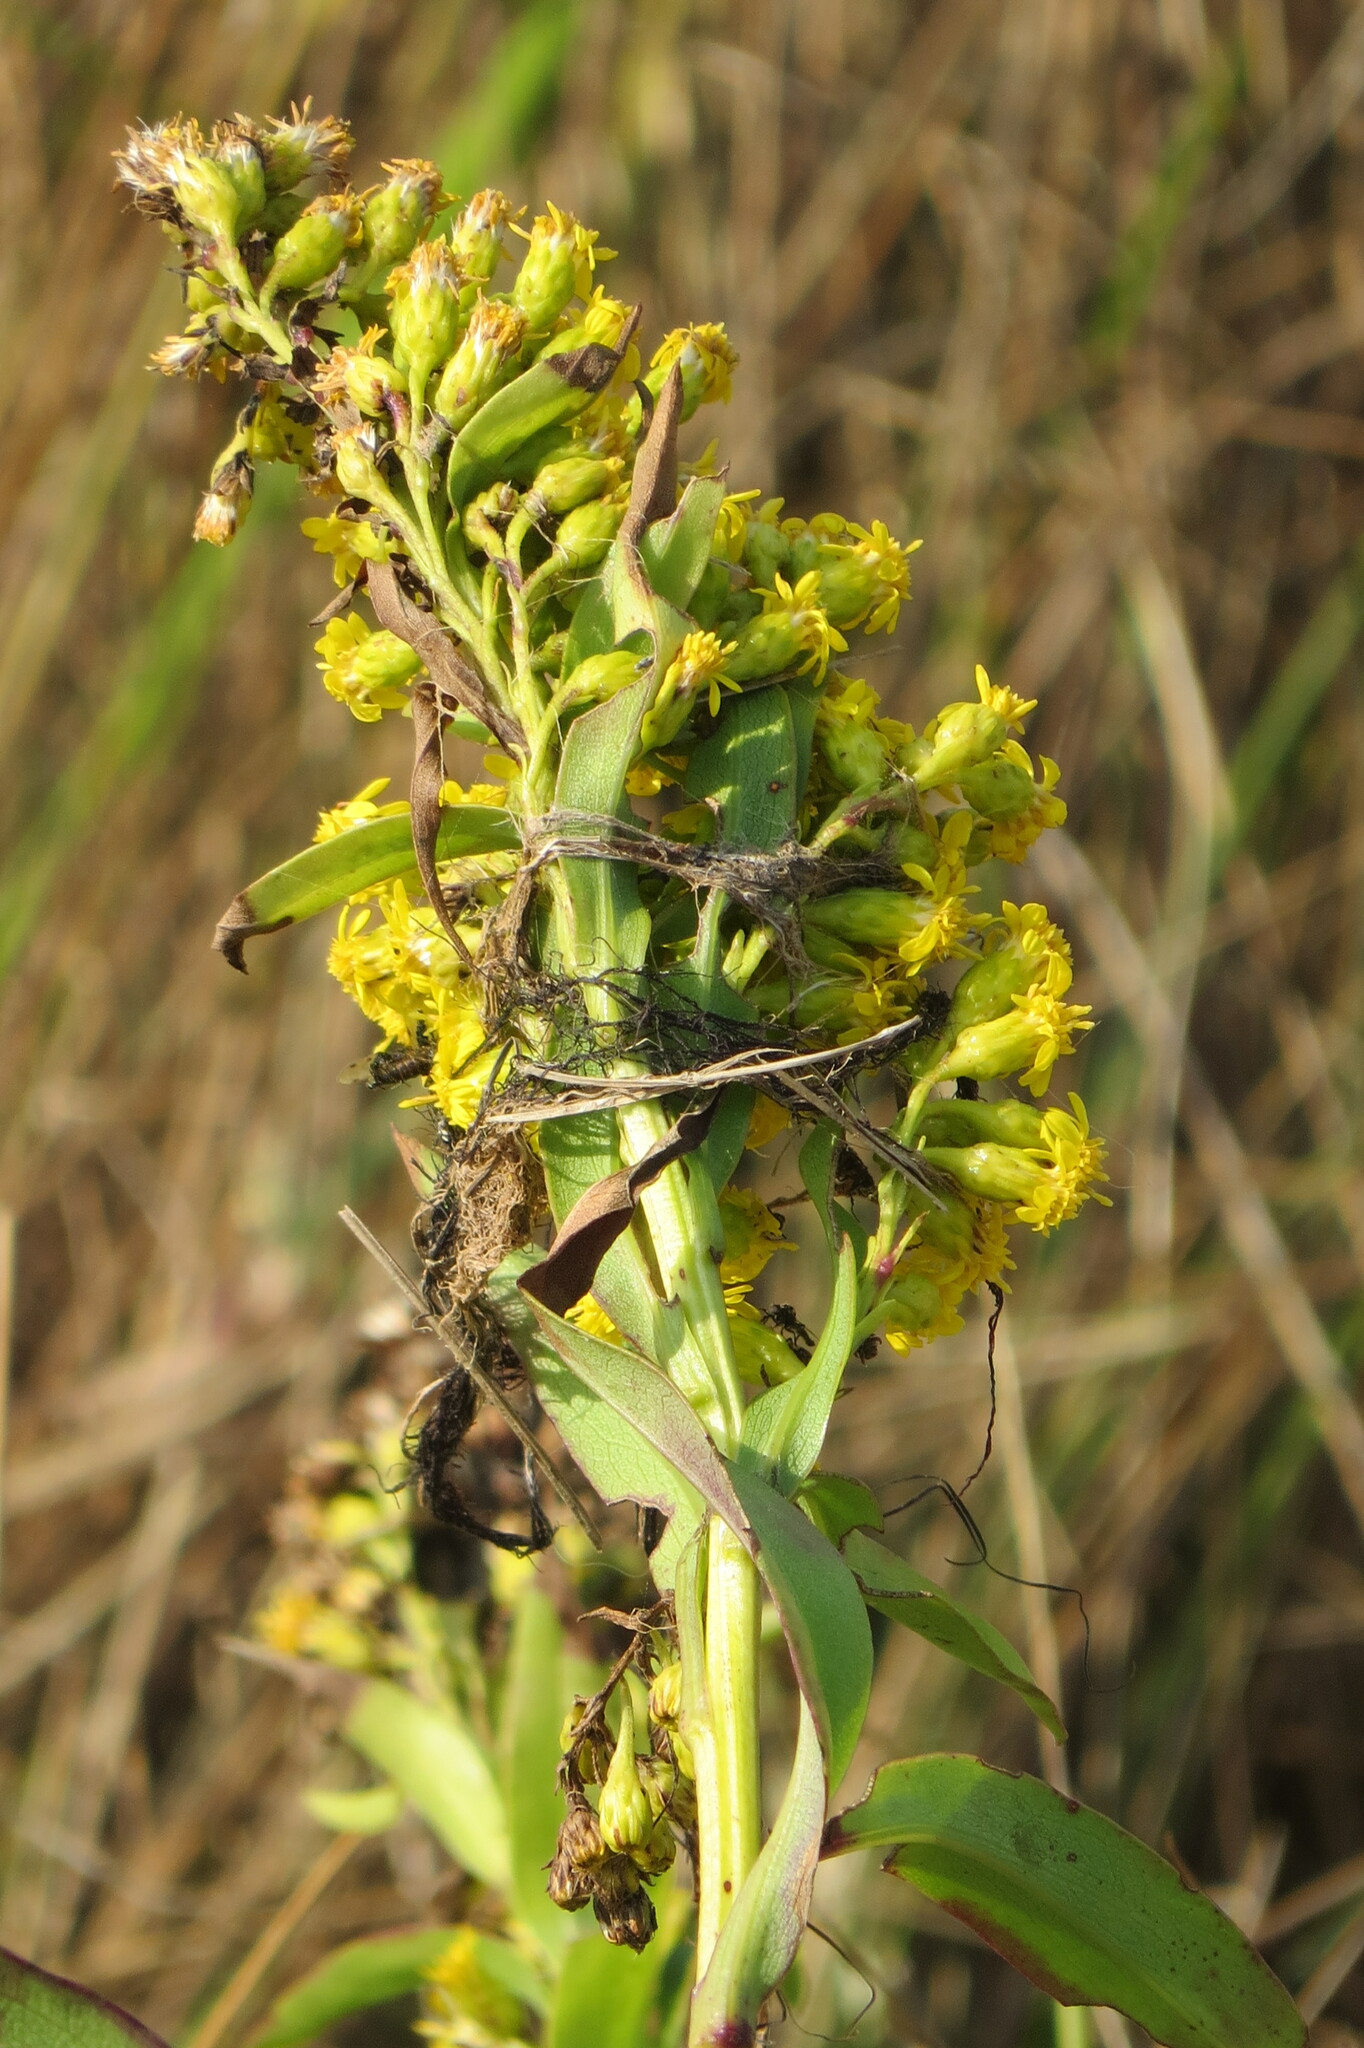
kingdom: Plantae
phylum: Tracheophyta
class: Magnoliopsida
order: Asterales
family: Asteraceae
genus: Solidago
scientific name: Solidago sempervirens
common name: Salt-marsh goldenrod
